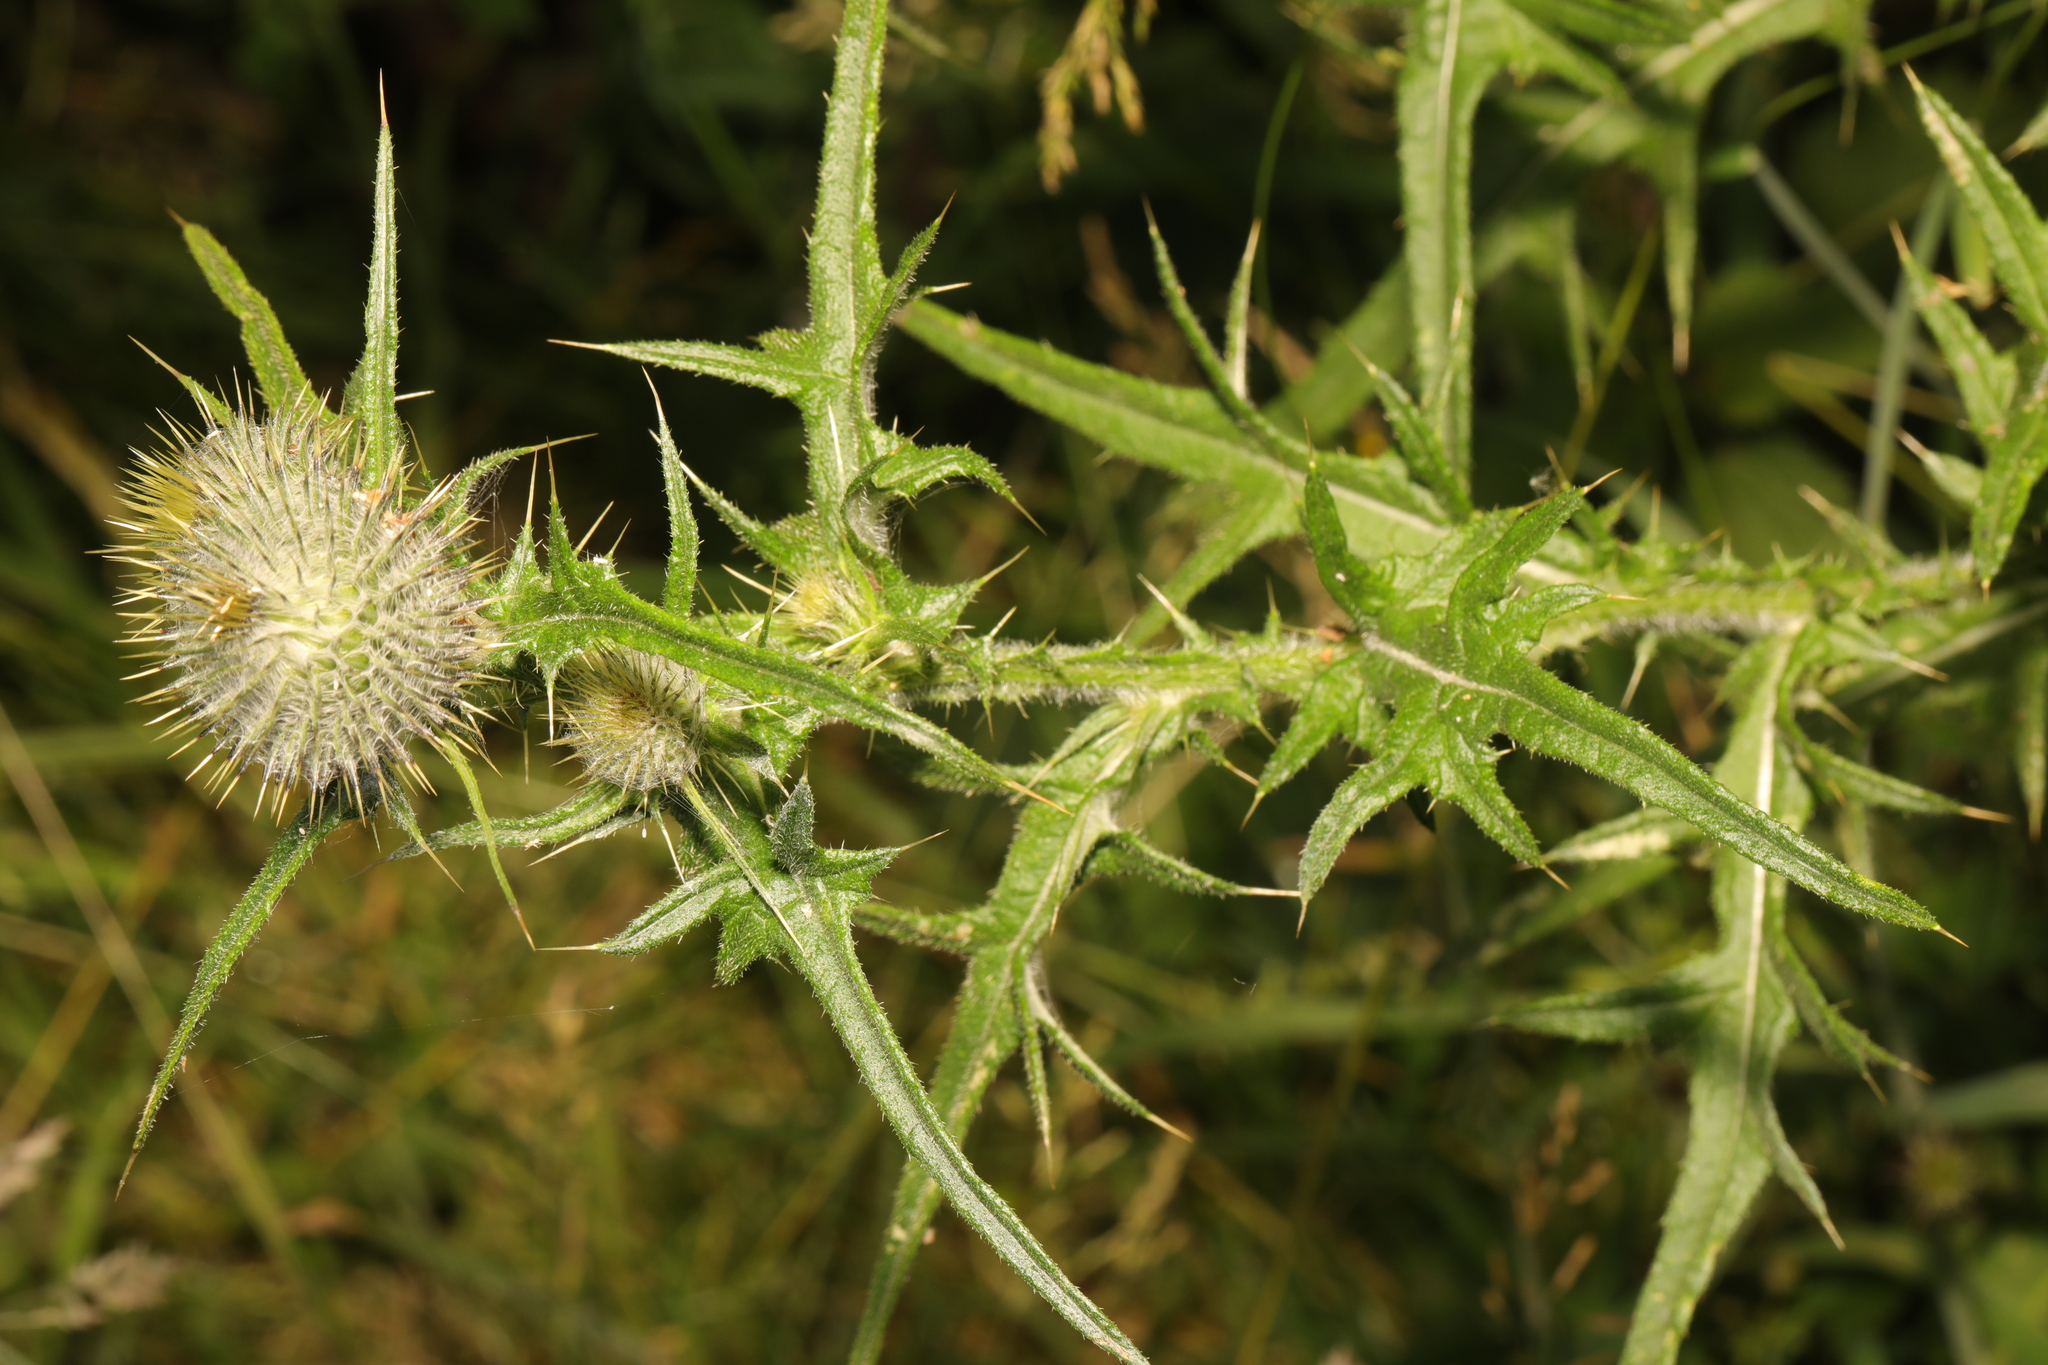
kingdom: Plantae
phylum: Tracheophyta
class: Magnoliopsida
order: Asterales
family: Asteraceae
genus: Cirsium
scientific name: Cirsium vulgare
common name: Bull thistle
